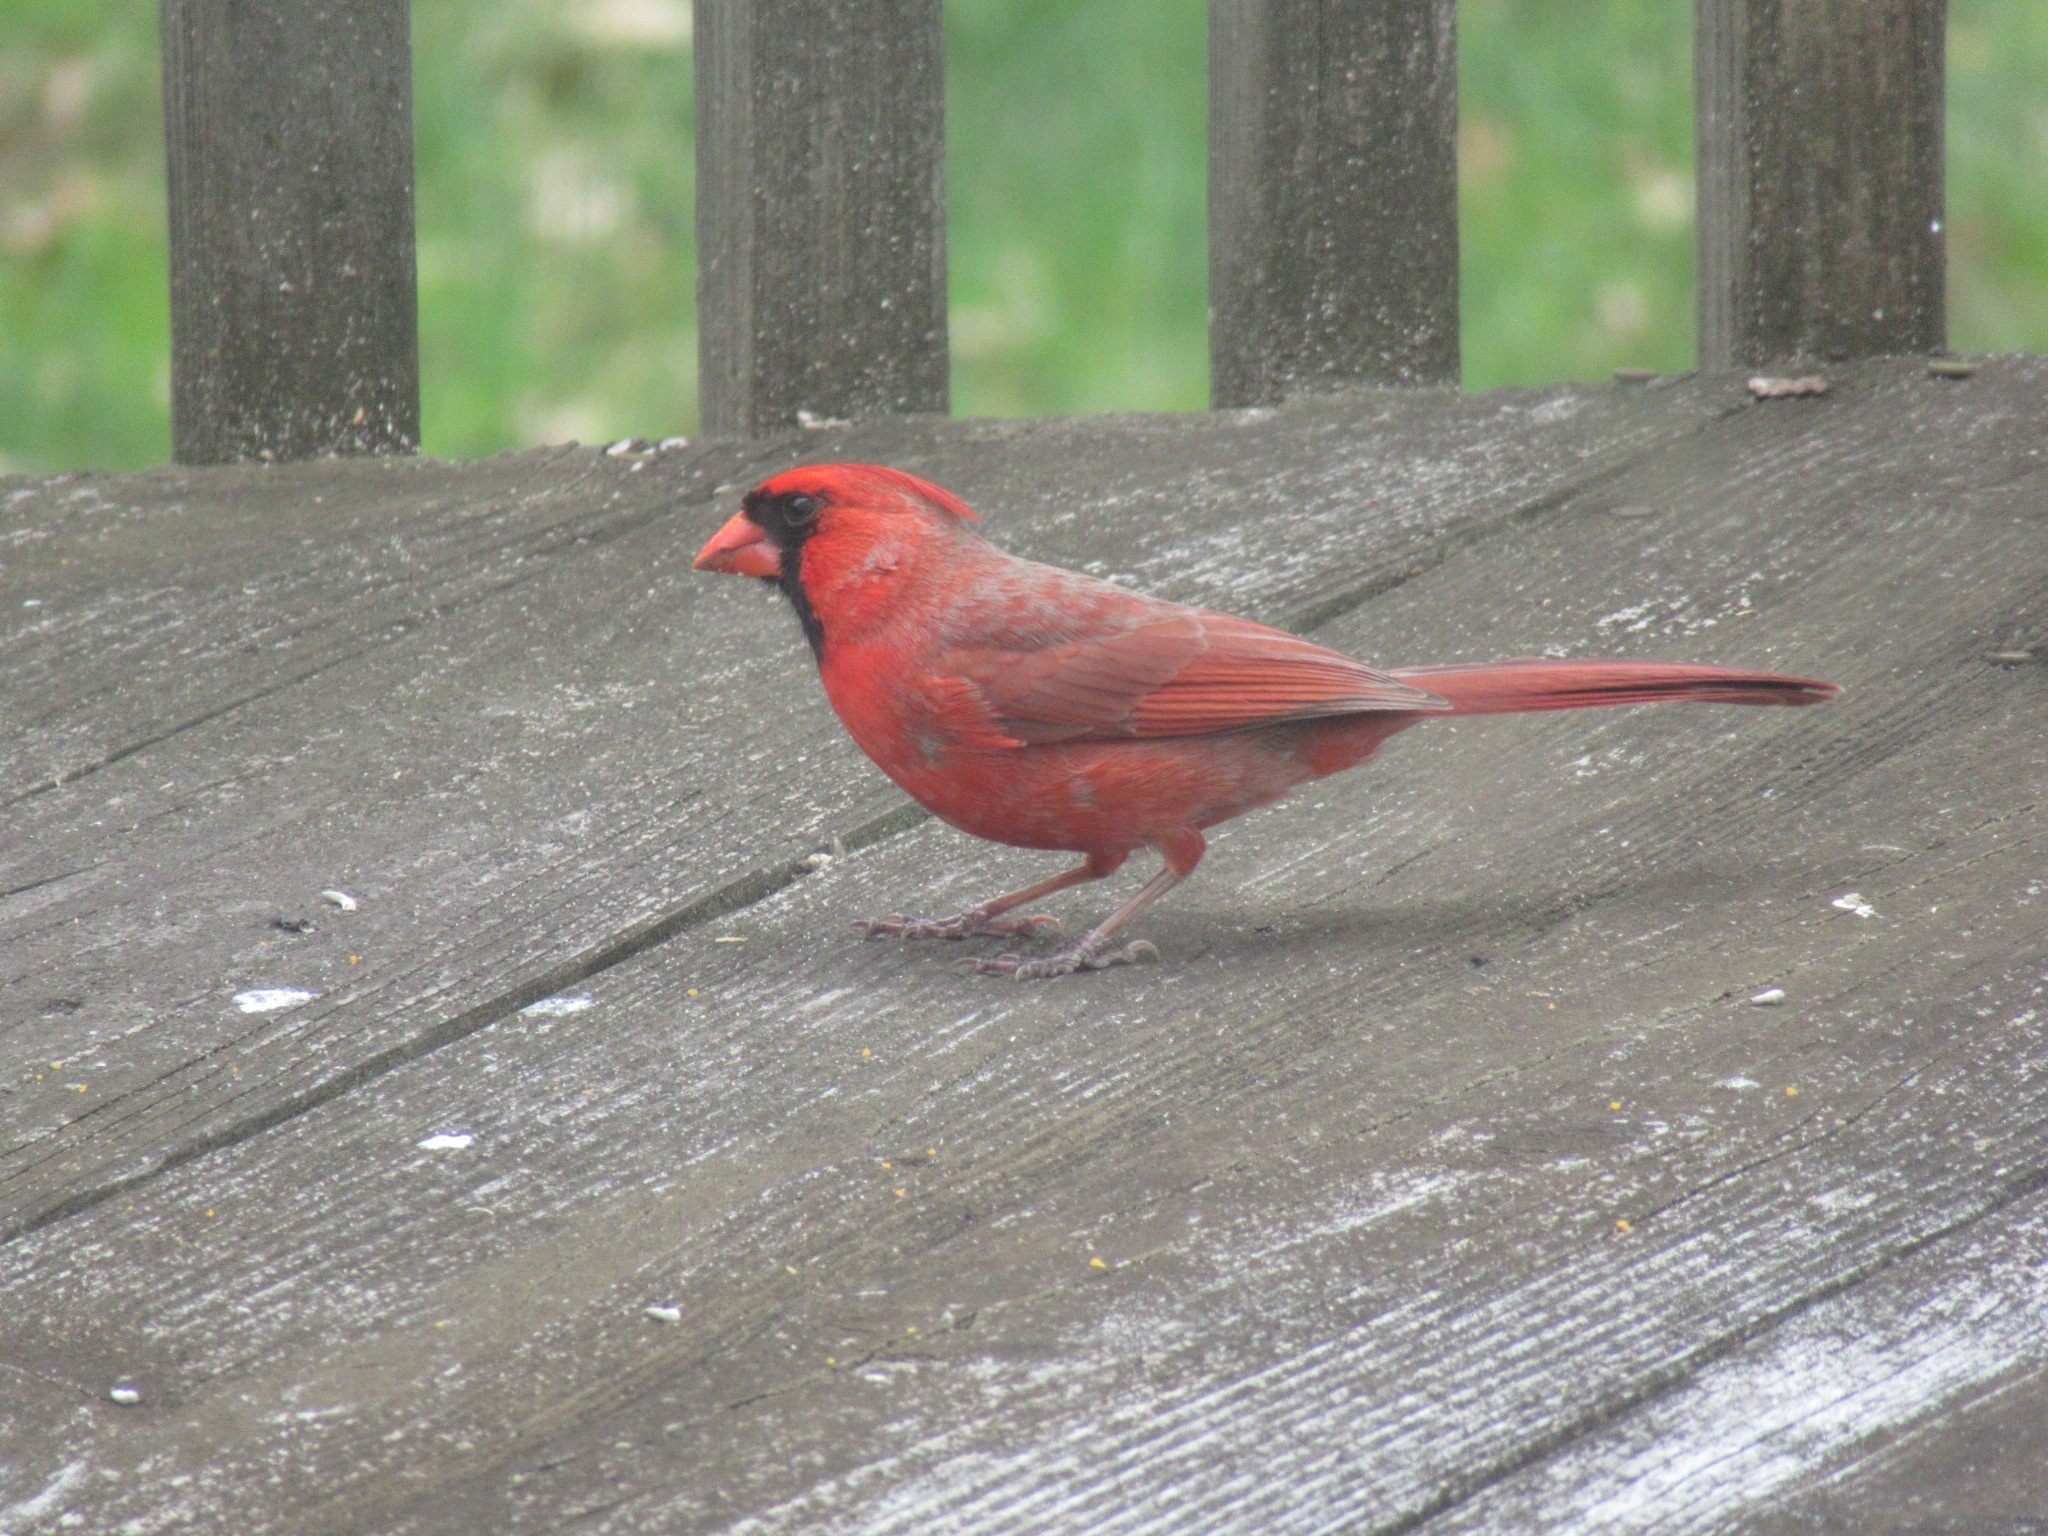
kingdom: Animalia
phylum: Chordata
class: Aves
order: Passeriformes
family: Cardinalidae
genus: Cardinalis
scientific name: Cardinalis cardinalis
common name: Northern cardinal
